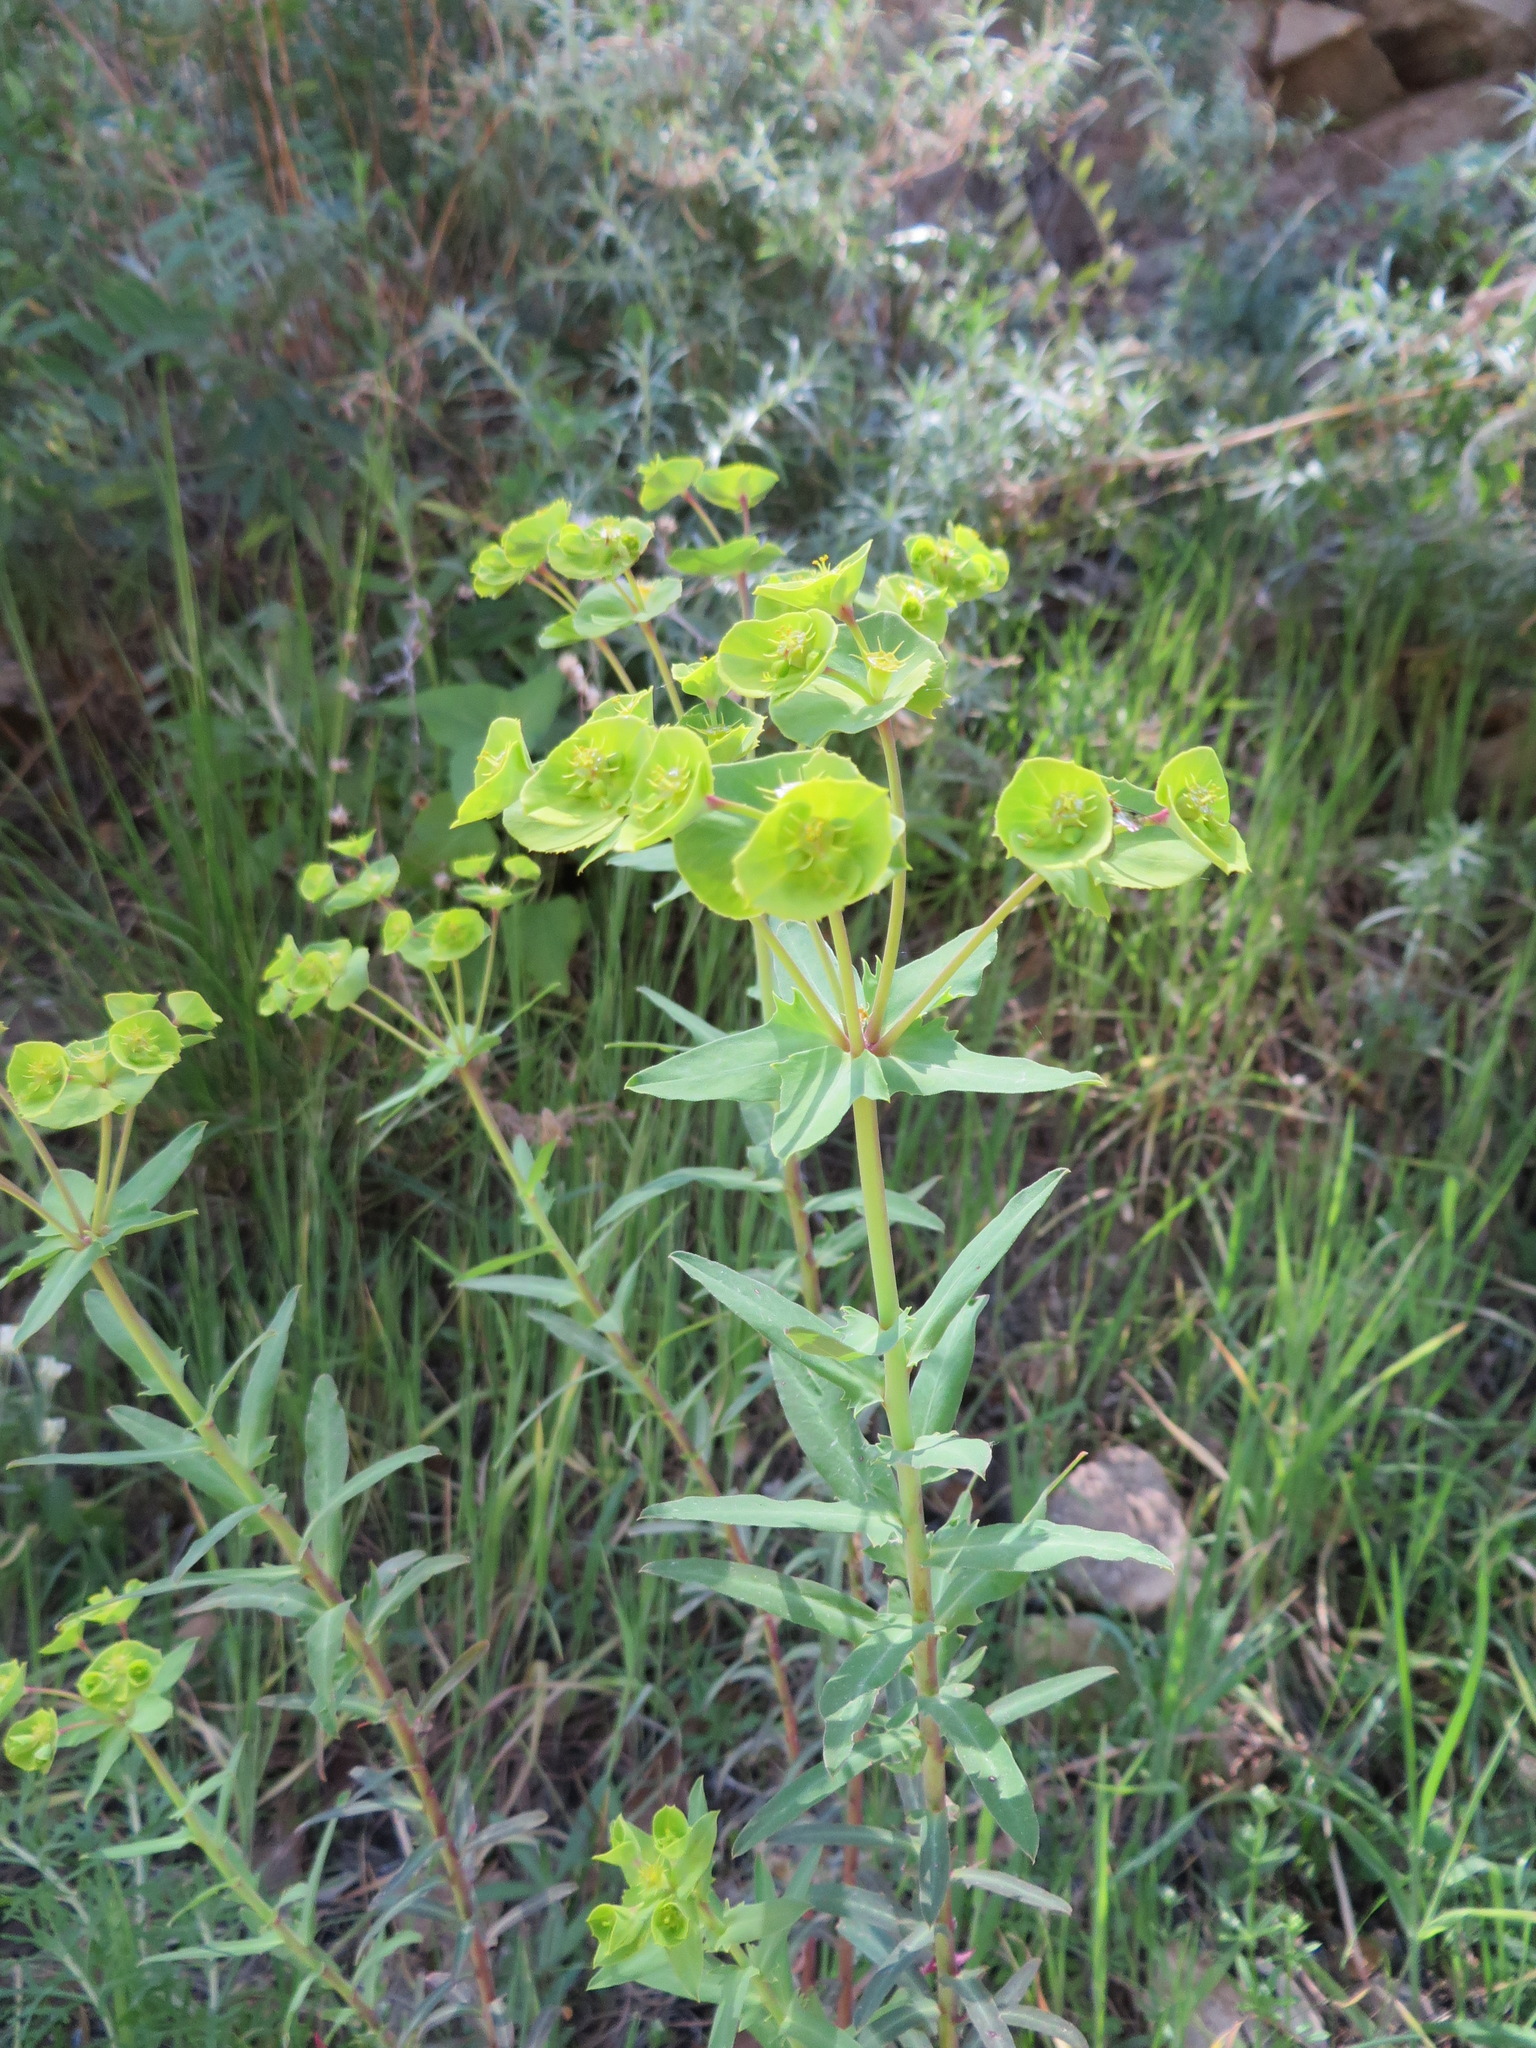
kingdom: Plantae
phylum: Tracheophyta
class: Magnoliopsida
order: Malpighiales
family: Euphorbiaceae
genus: Euphorbia
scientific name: Euphorbia terracina
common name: Geraldton carnation weed
